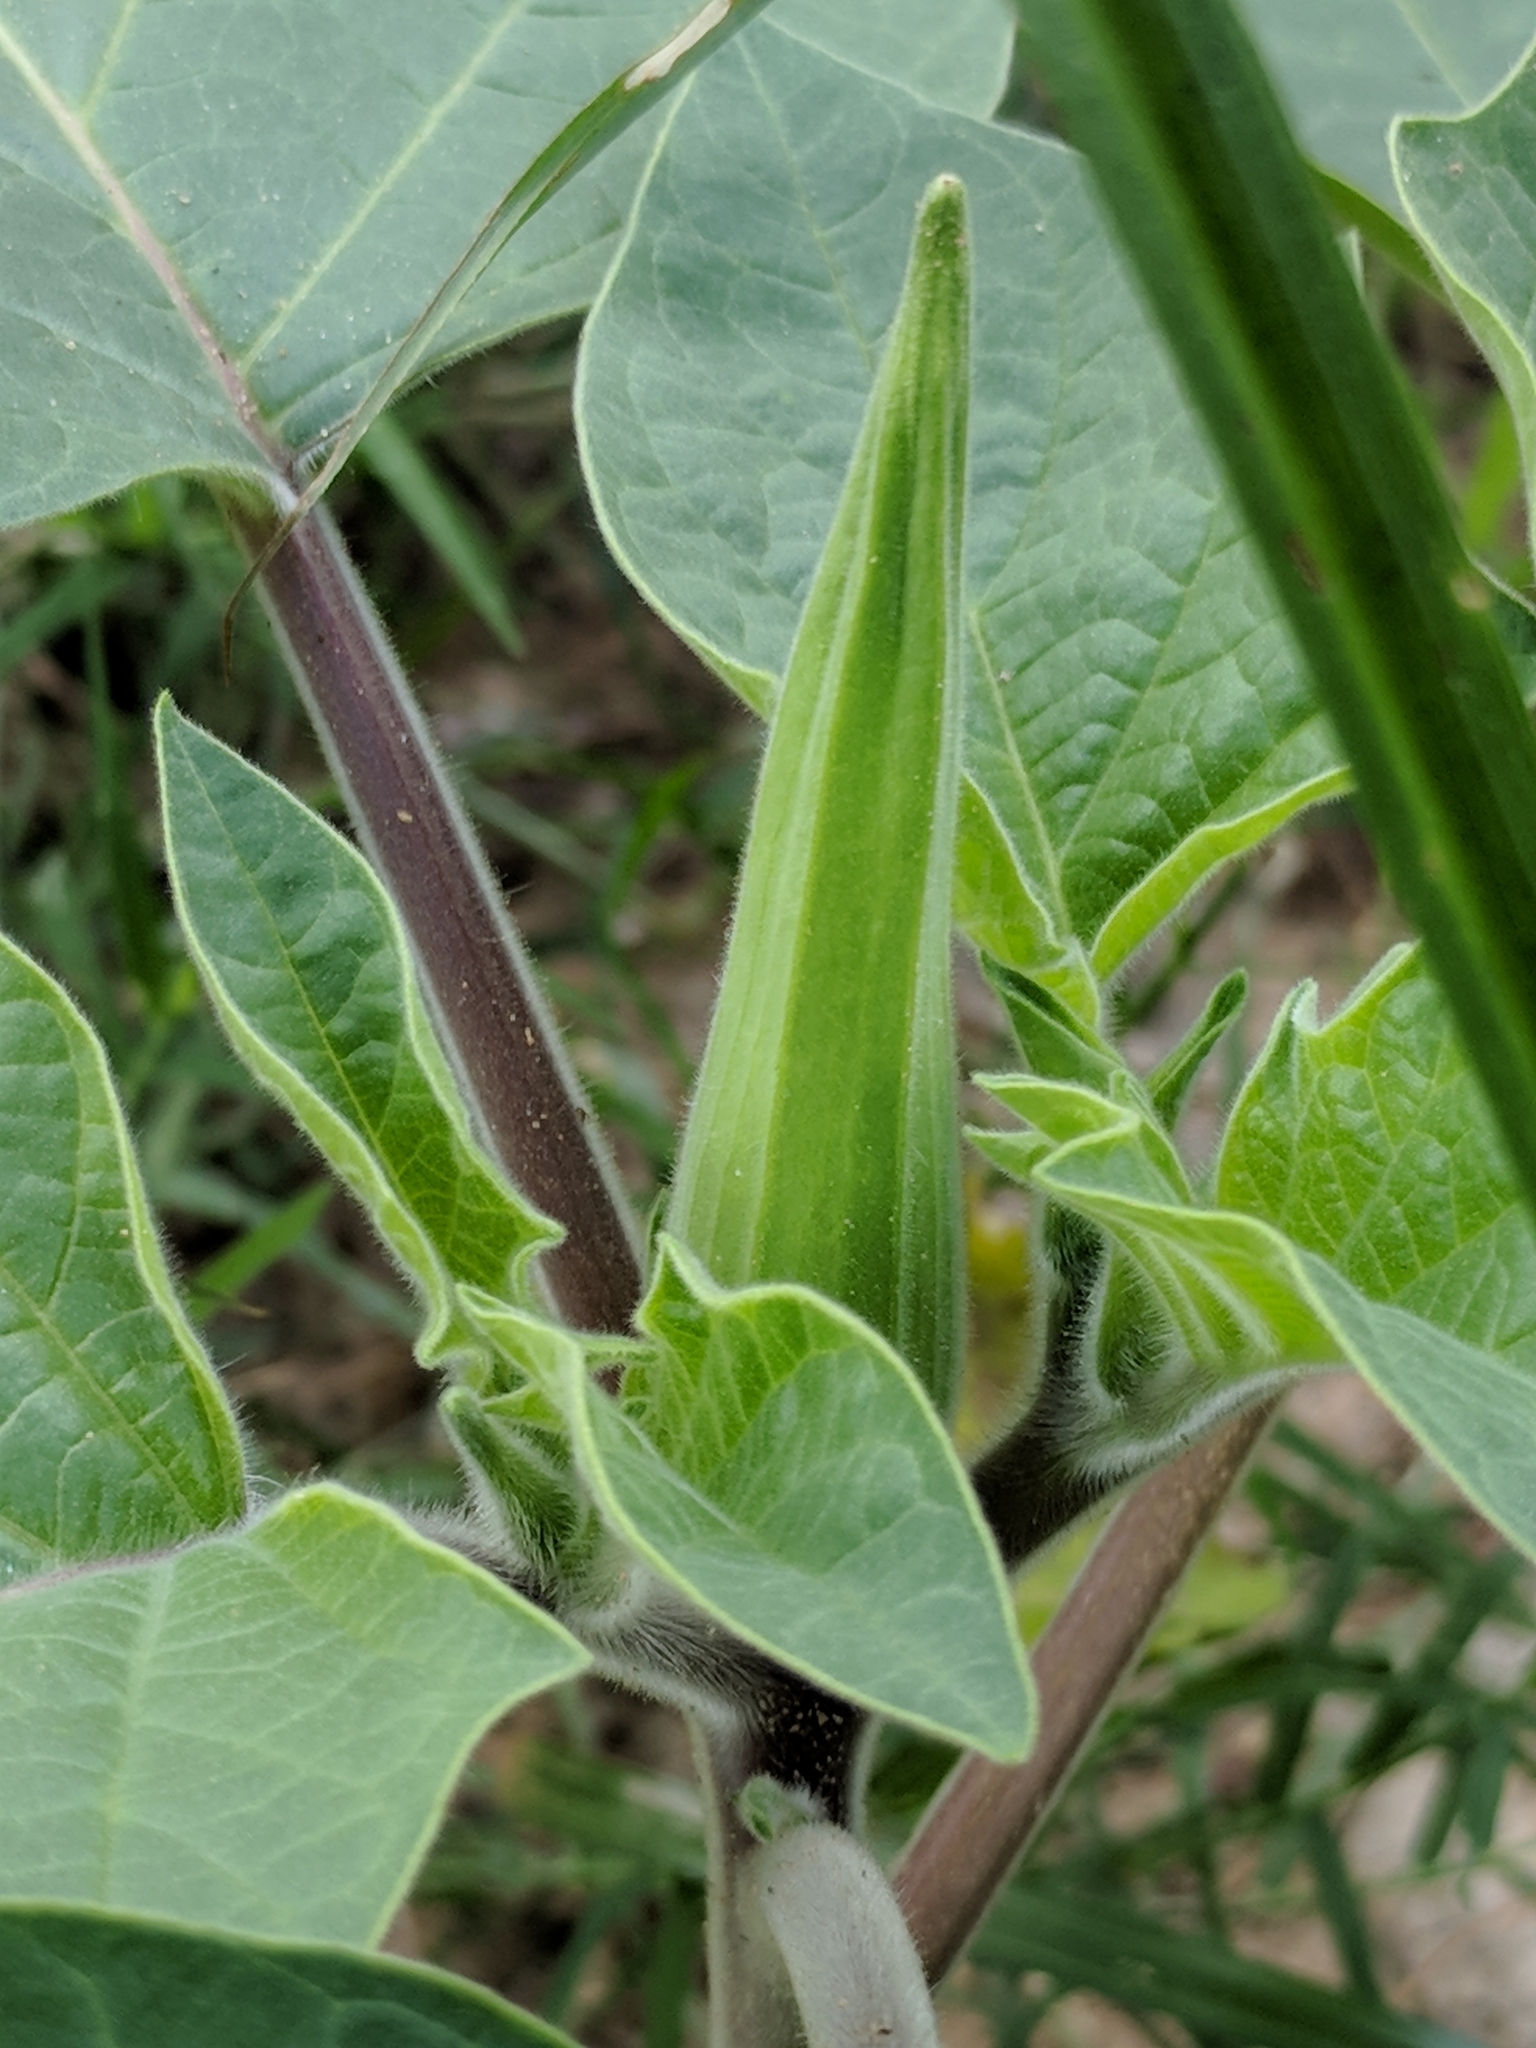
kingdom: Plantae
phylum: Tracheophyta
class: Magnoliopsida
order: Solanales
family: Solanaceae
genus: Datura
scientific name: Datura wrightii
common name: Sacred thorn-apple
